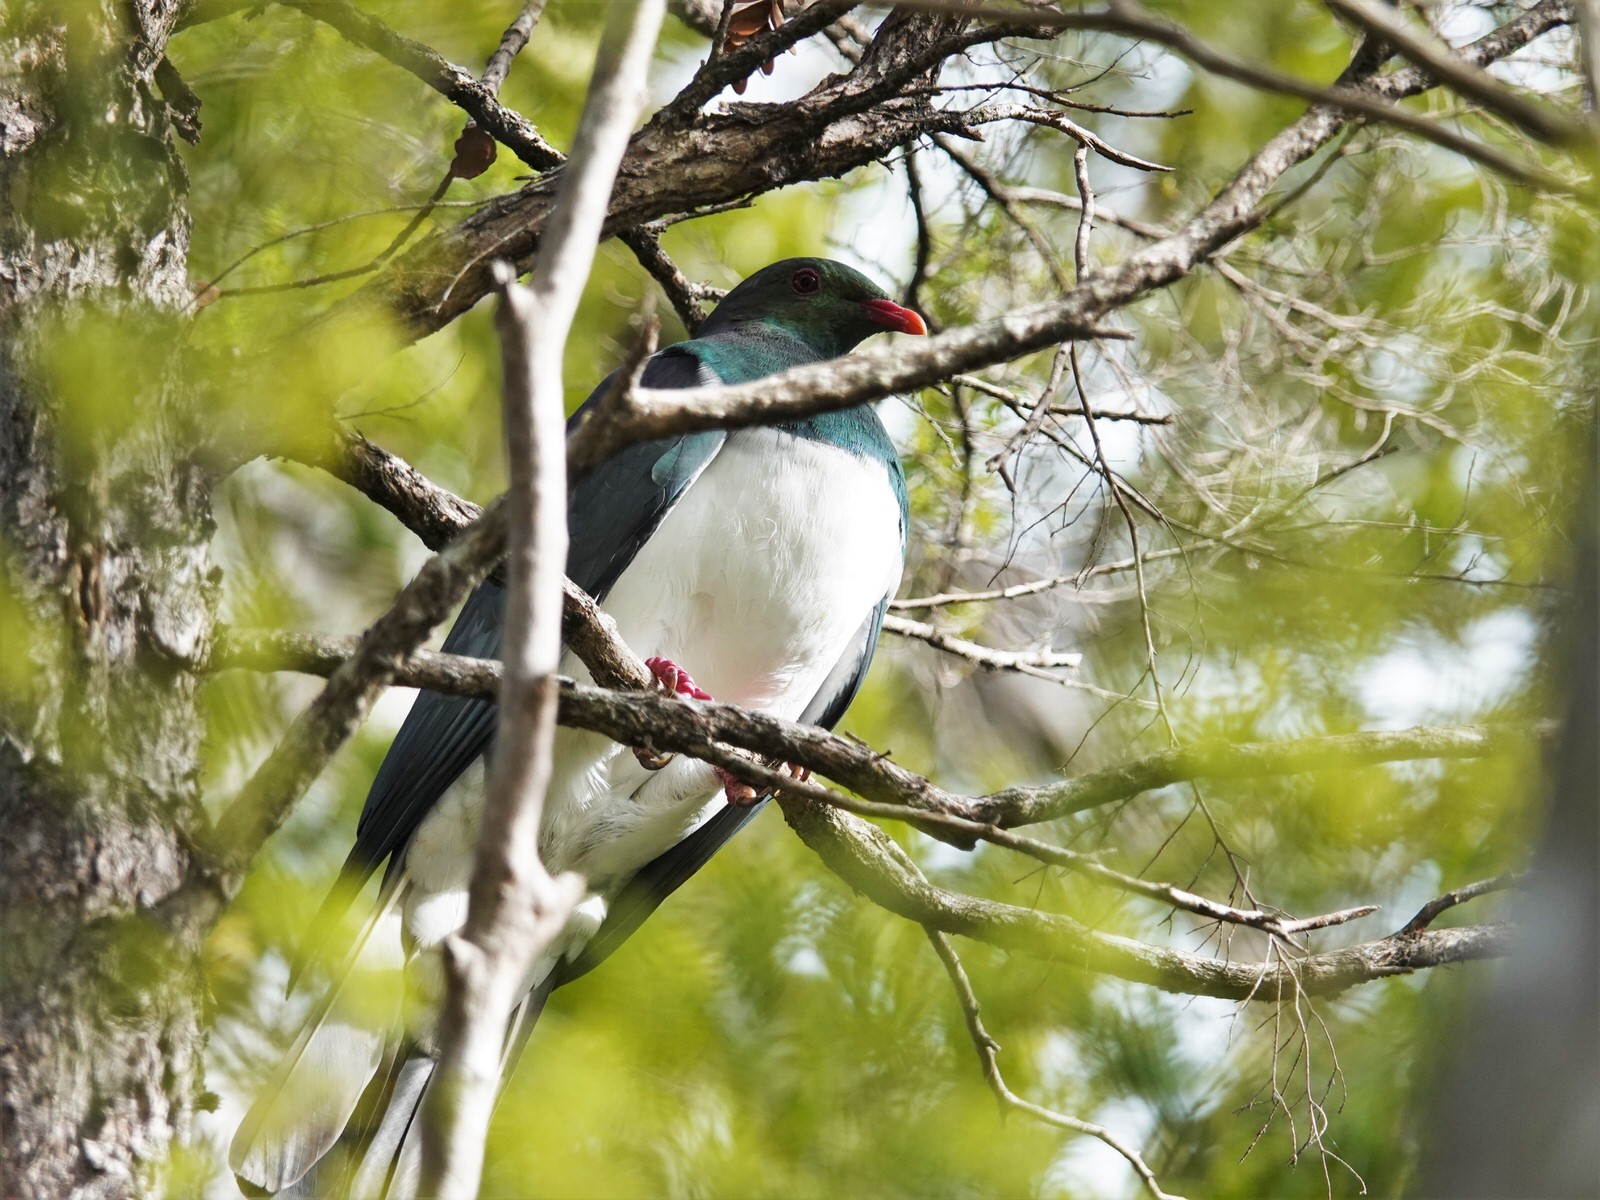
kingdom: Animalia
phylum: Chordata
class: Aves
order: Columbiformes
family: Columbidae
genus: Hemiphaga
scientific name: Hemiphaga novaeseelandiae
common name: New zealand pigeon
